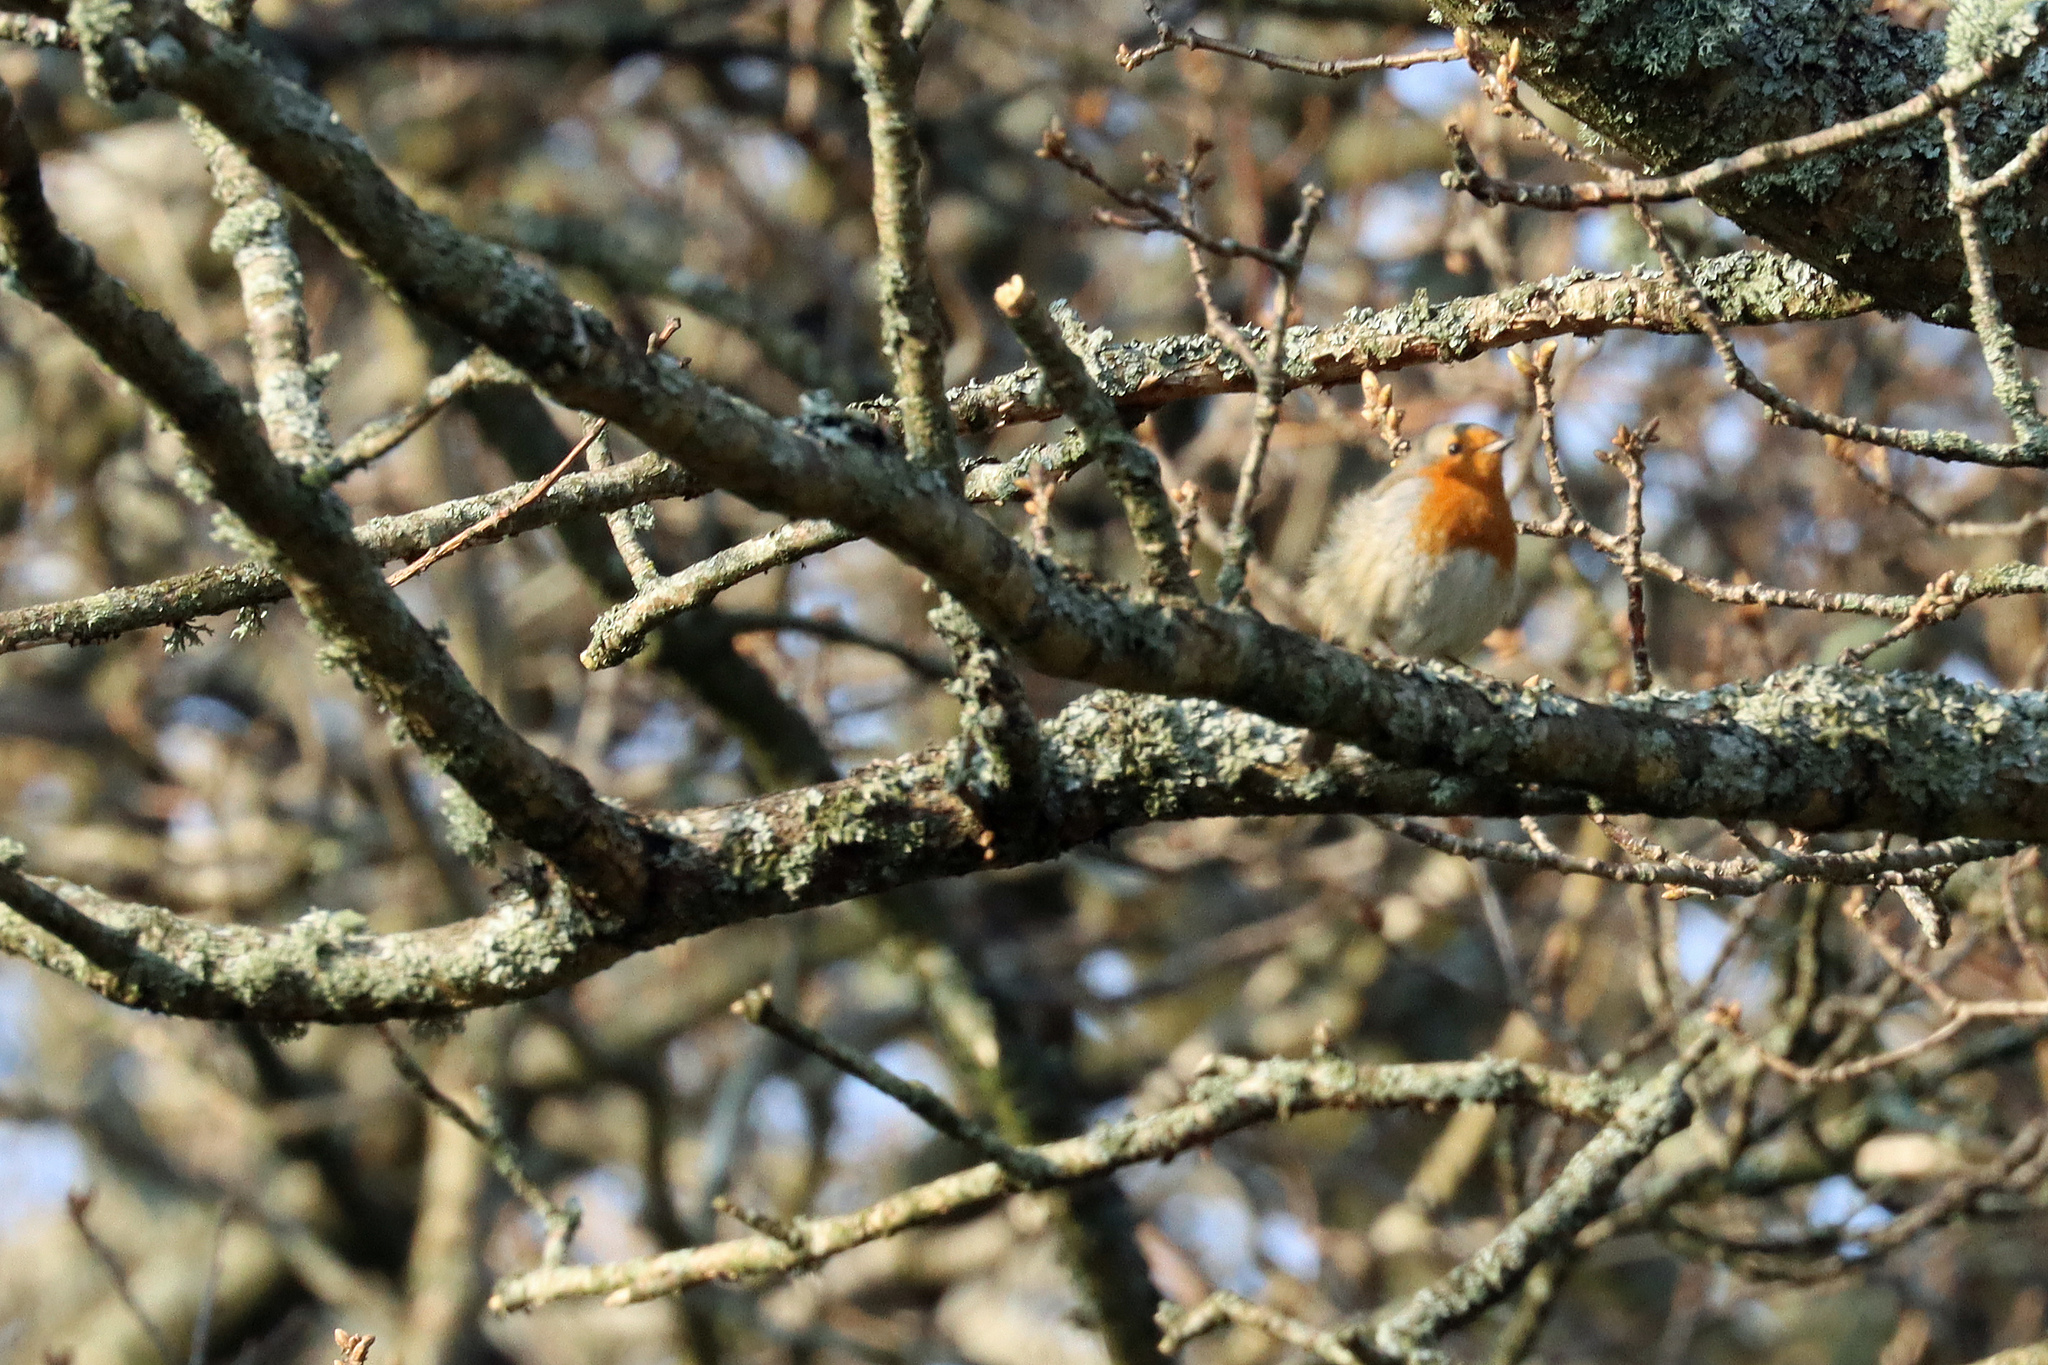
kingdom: Animalia
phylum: Chordata
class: Aves
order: Passeriformes
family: Muscicapidae
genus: Erithacus
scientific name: Erithacus rubecula
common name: European robin
